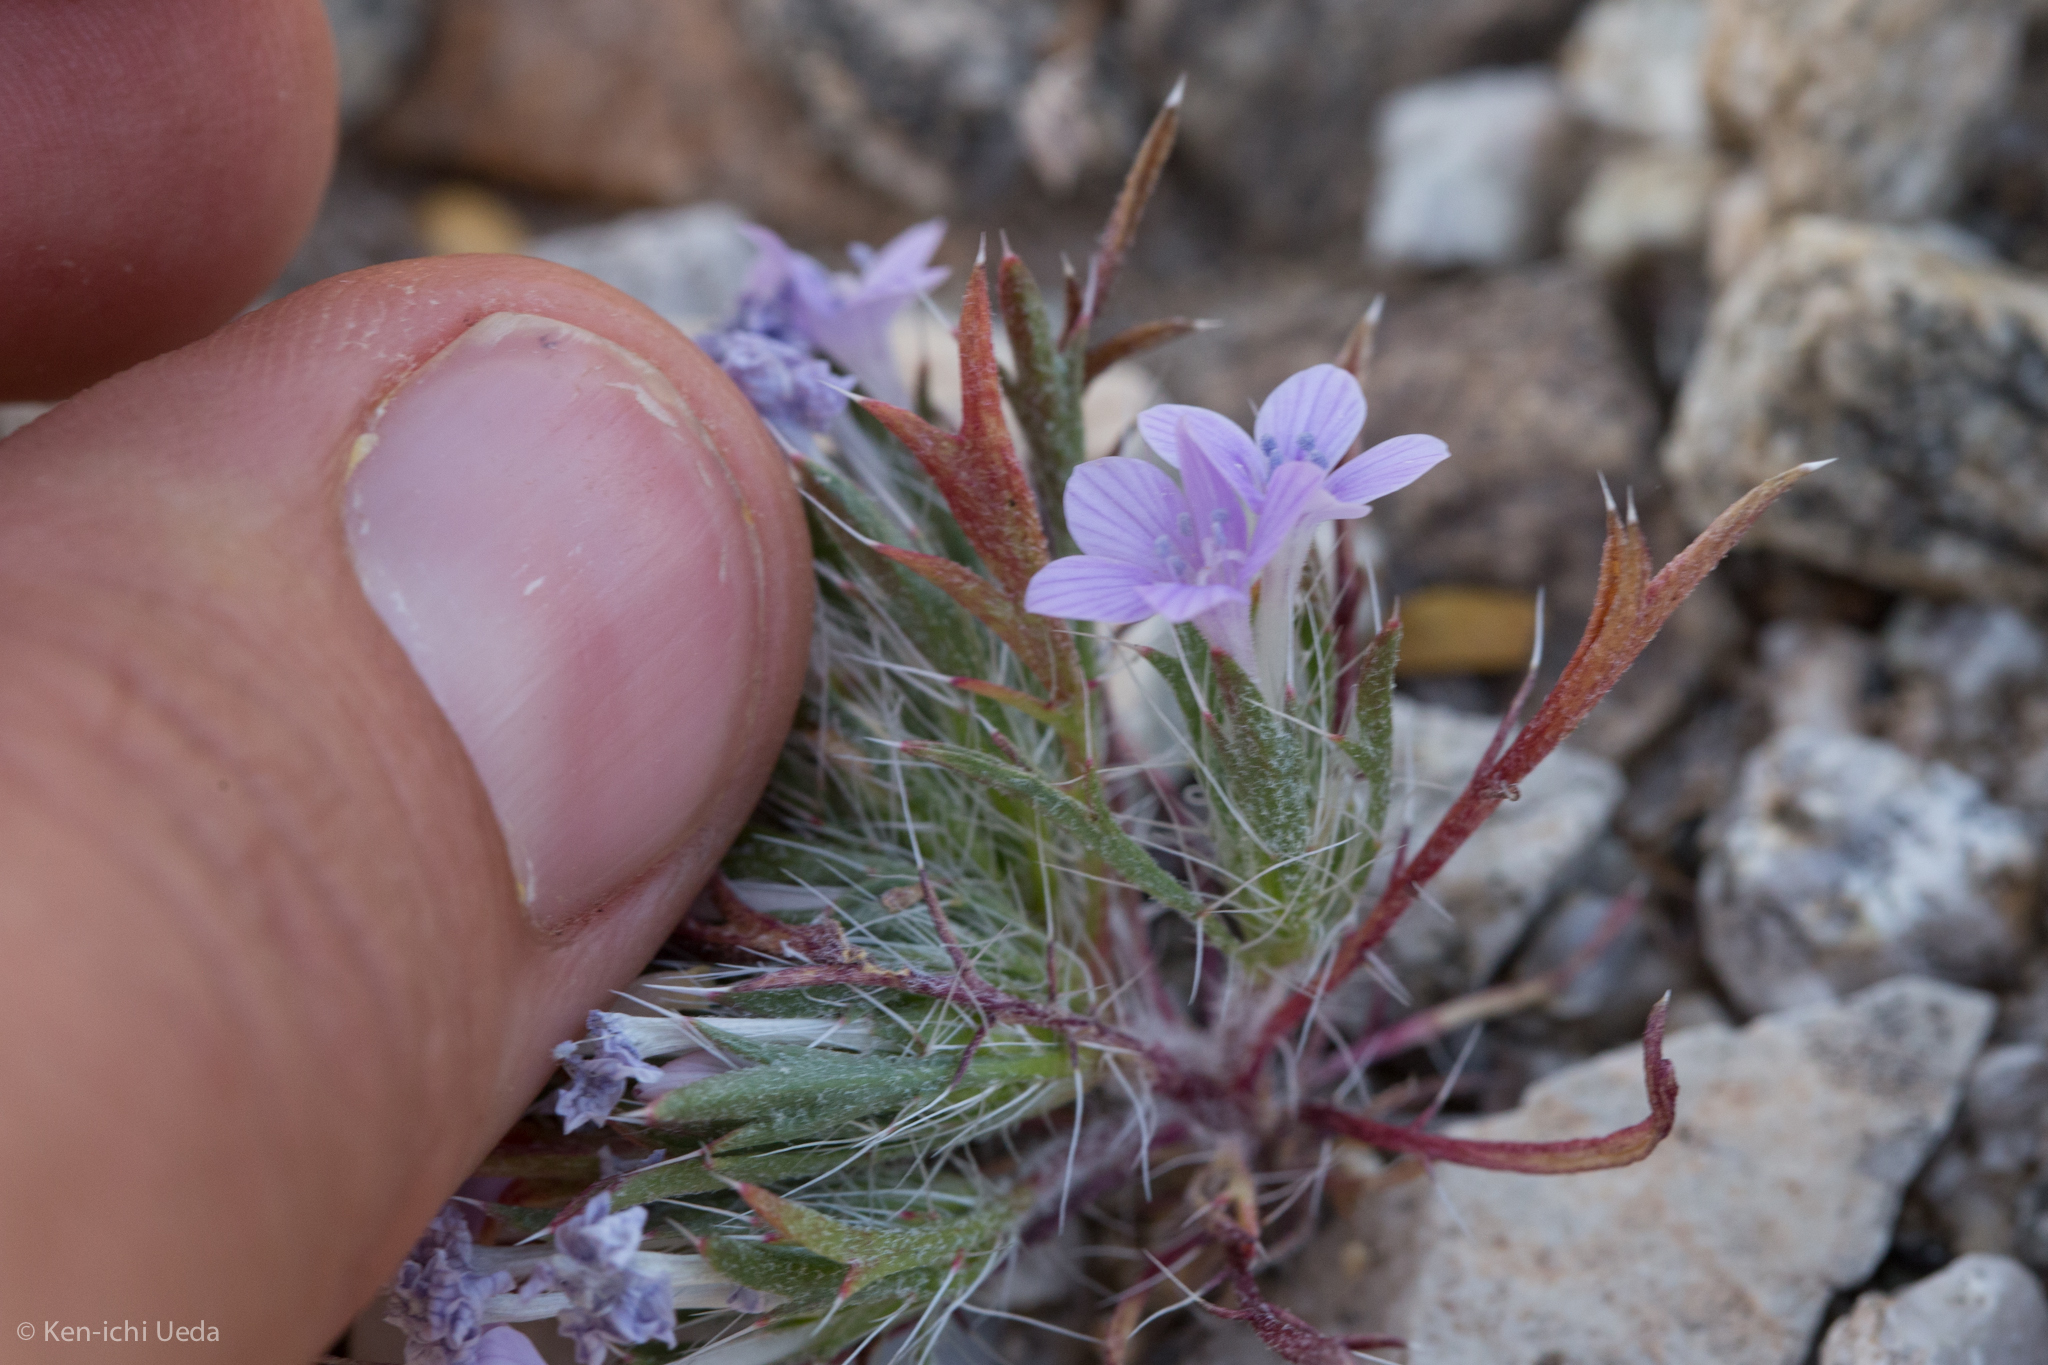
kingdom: Plantae
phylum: Tracheophyta
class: Magnoliopsida
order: Ericales
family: Polemoniaceae
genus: Langloisia
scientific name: Langloisia setosissima
